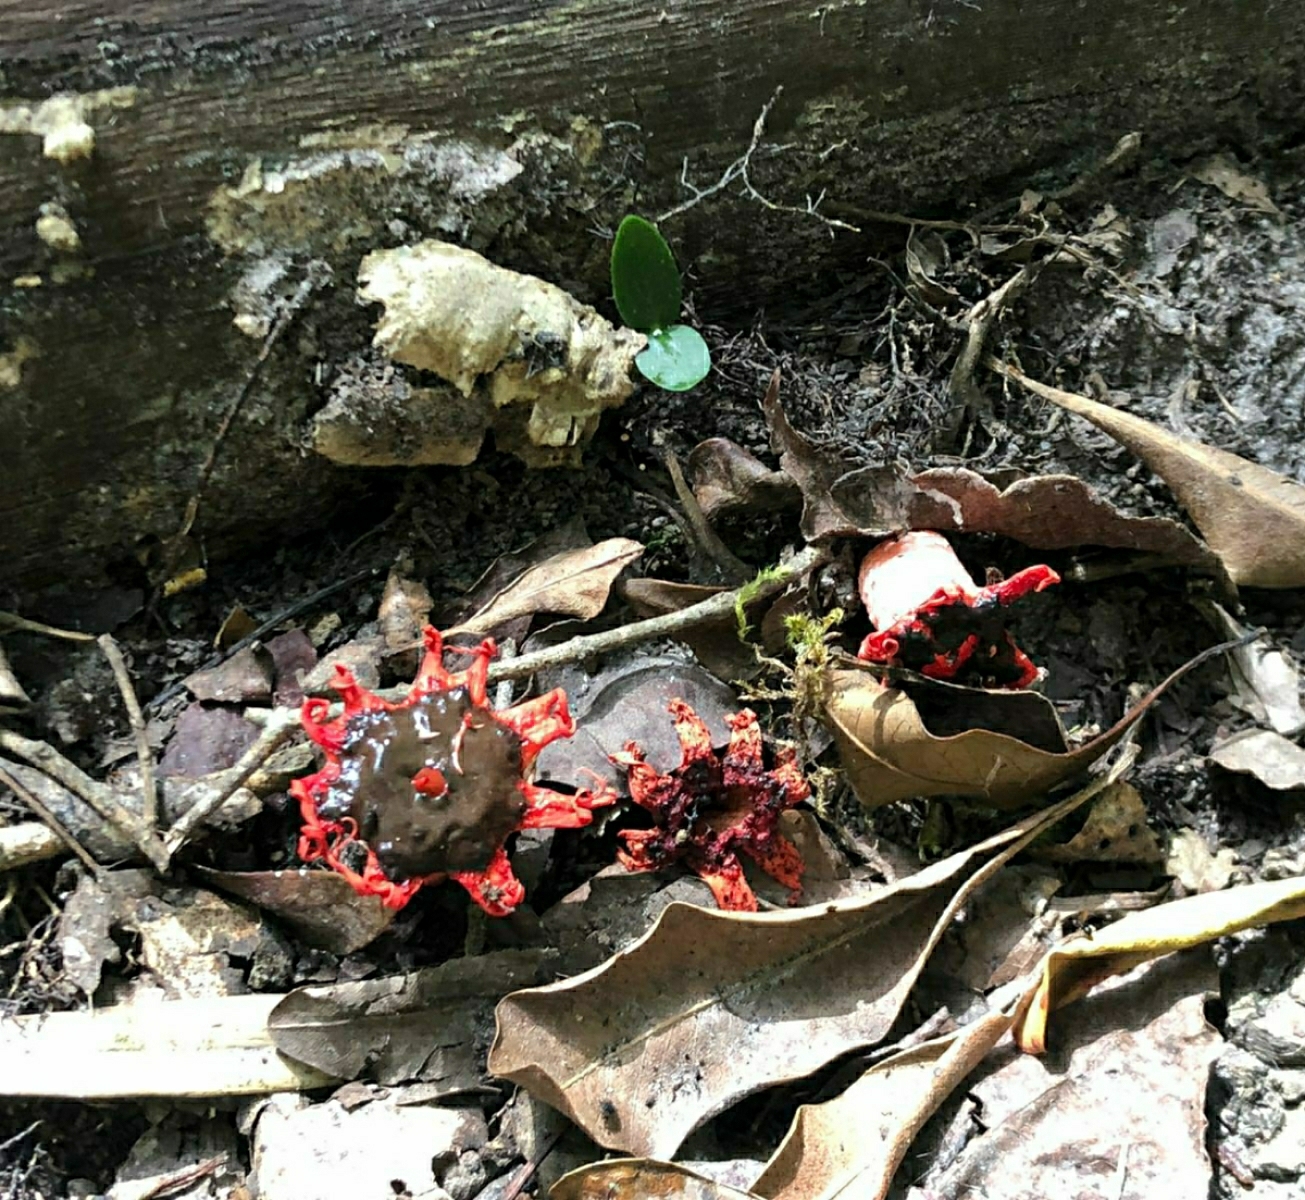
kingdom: Fungi
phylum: Basidiomycota
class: Agaricomycetes
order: Phallales
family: Phallaceae
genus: Aseroe
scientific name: Aseroe rubra
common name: Starfish fungus
